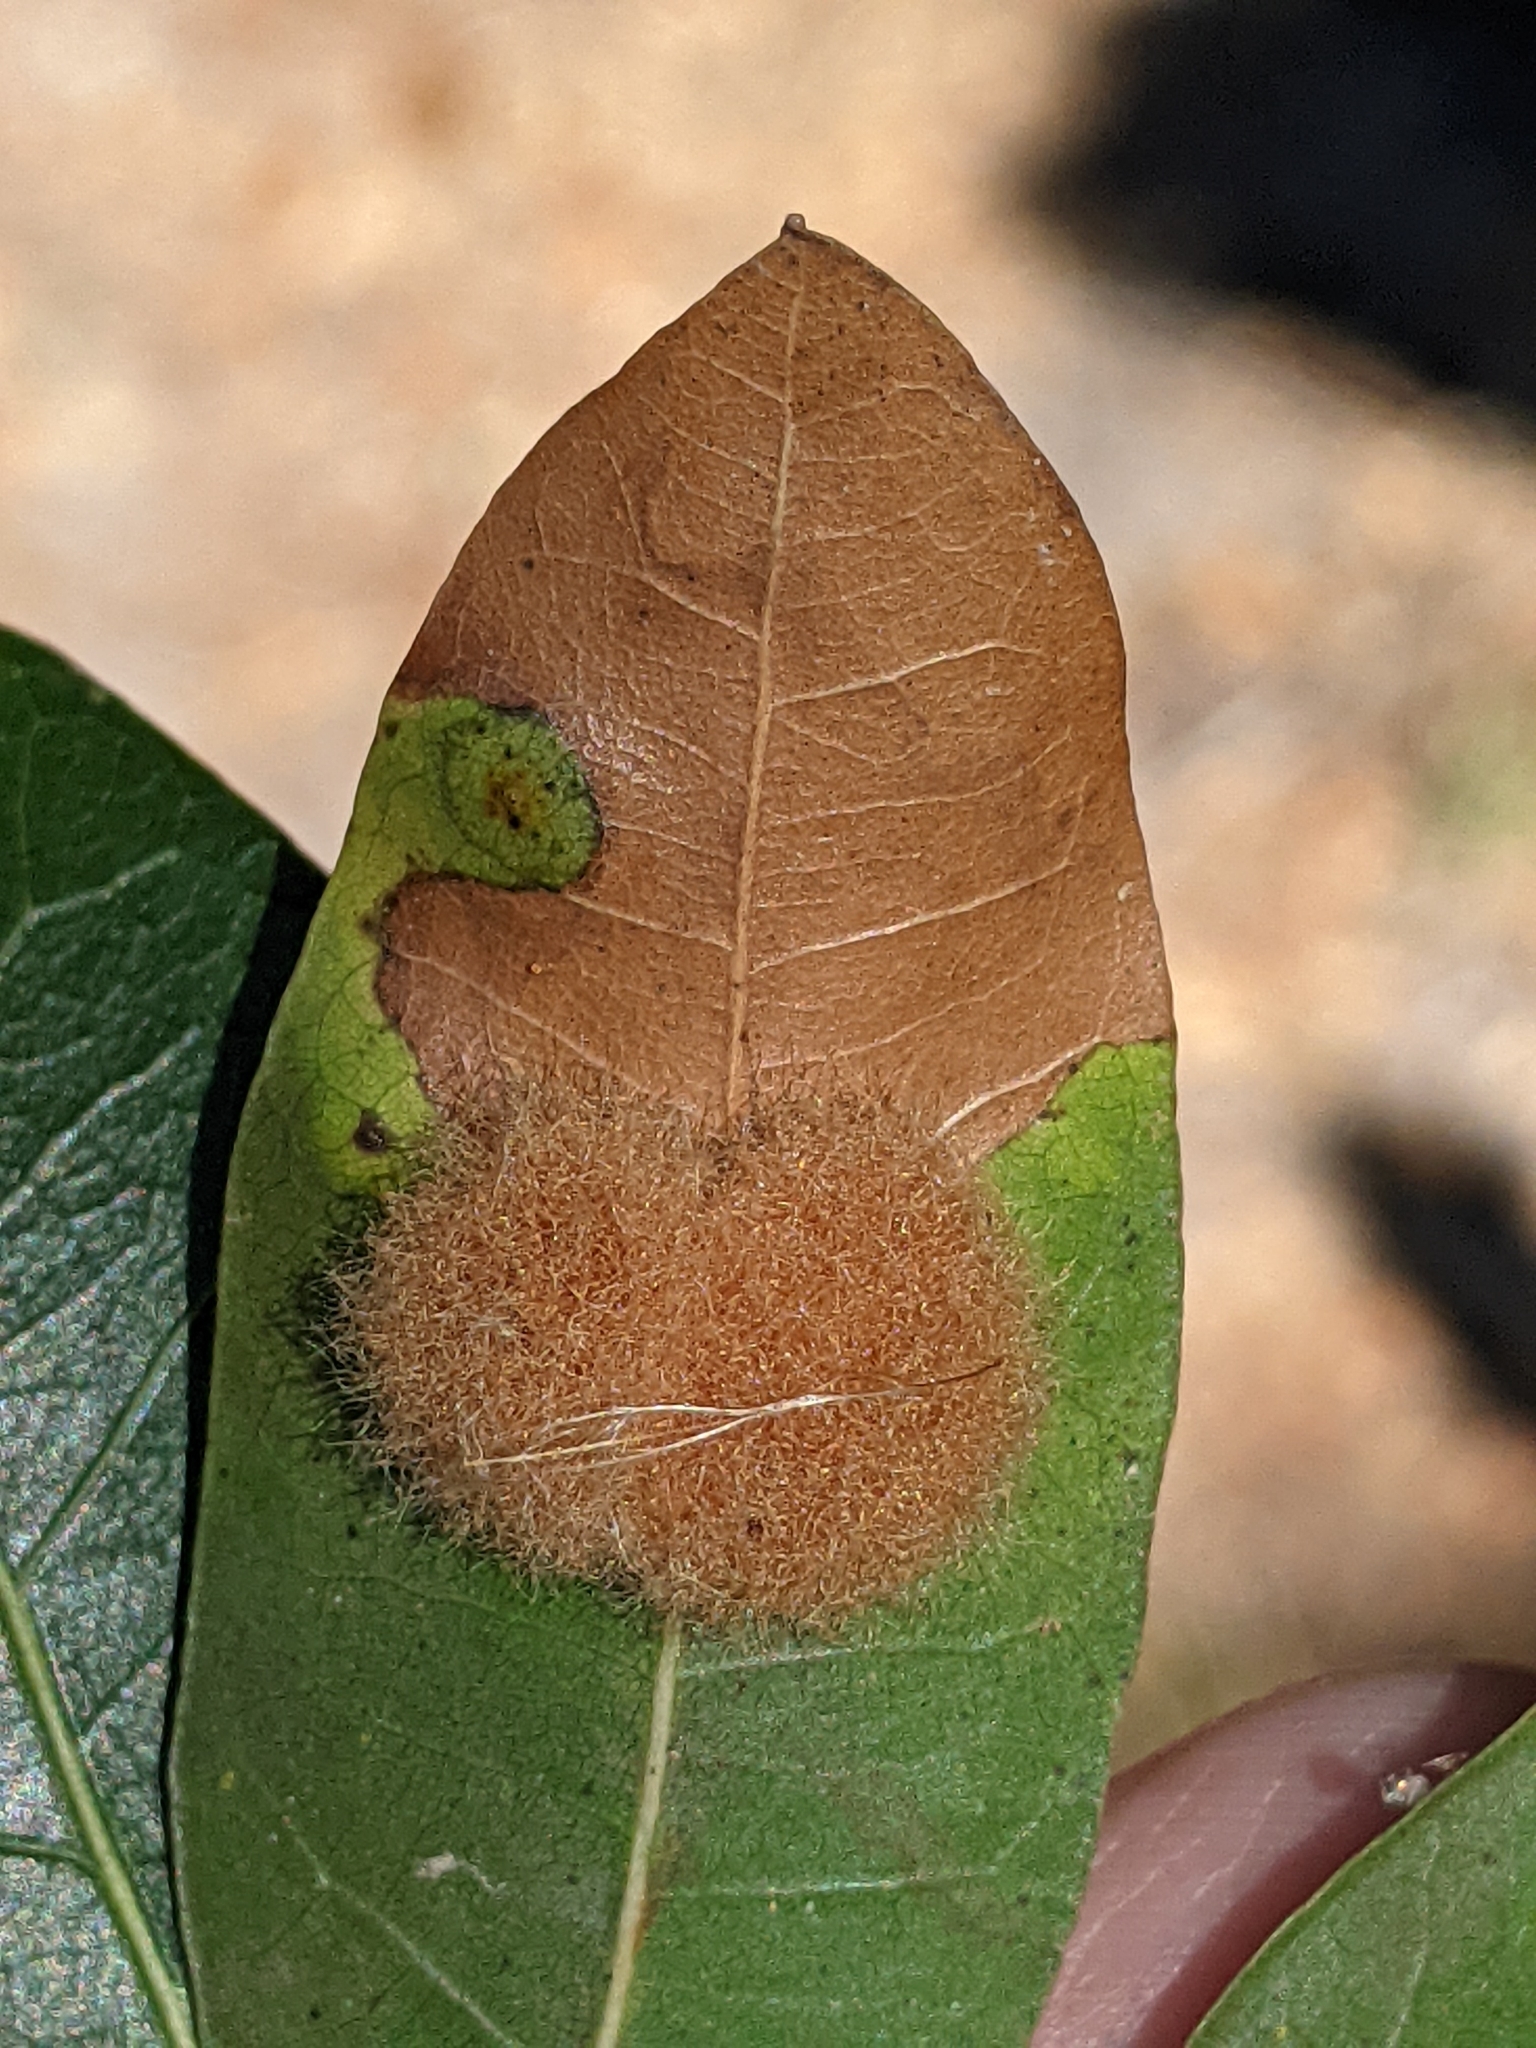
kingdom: Animalia
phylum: Arthropoda
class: Insecta
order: Hymenoptera
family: Cynipidae
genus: Andricus
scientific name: Andricus Druon quercuslanigerum
